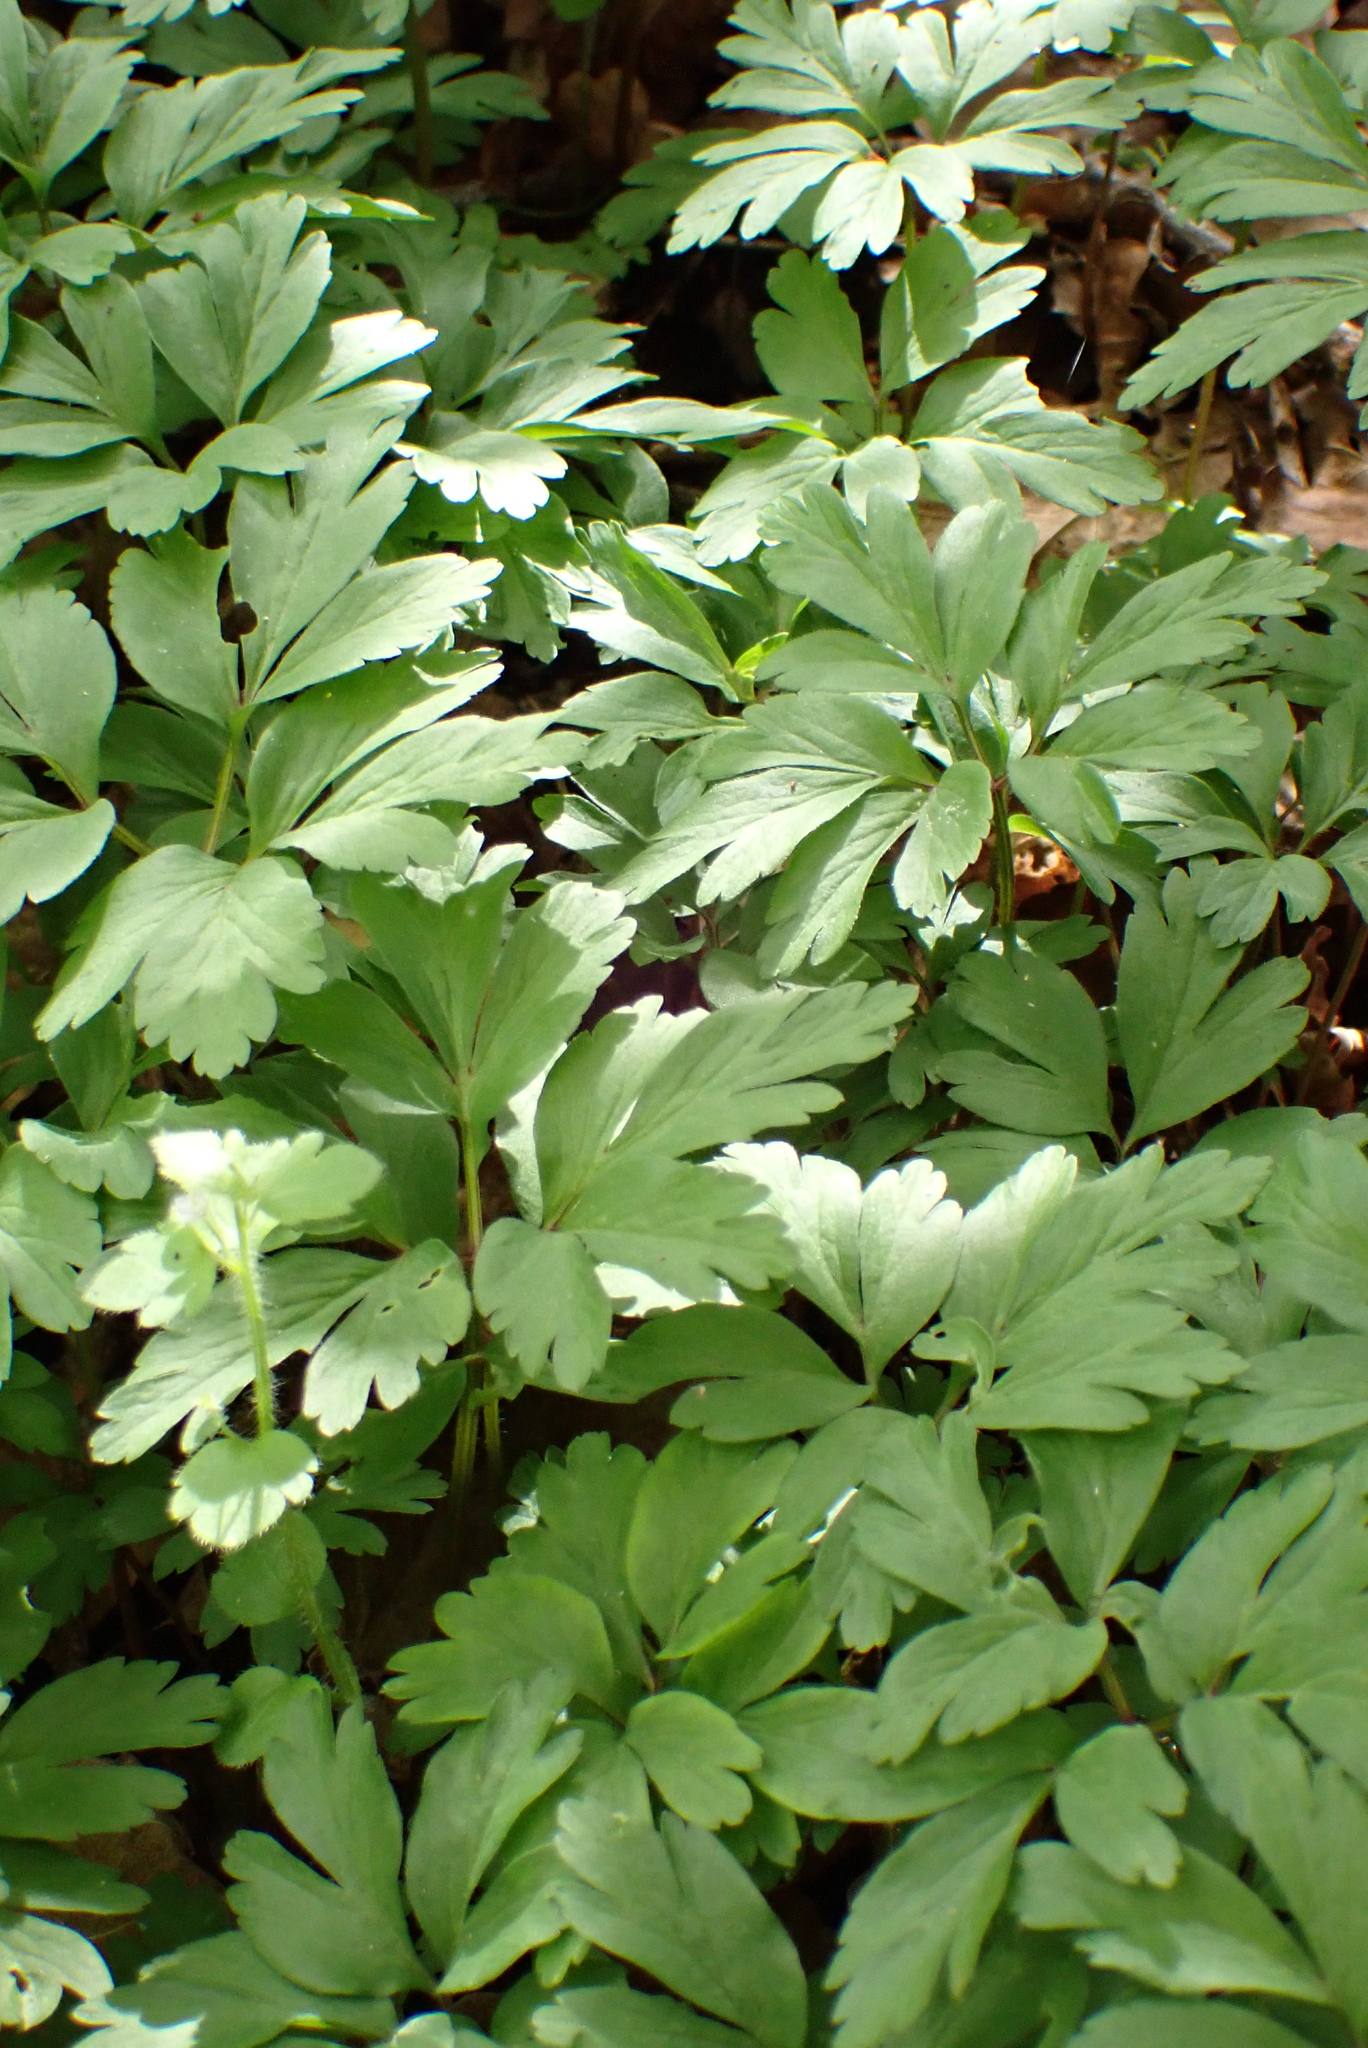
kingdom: Plantae
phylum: Tracheophyta
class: Magnoliopsida
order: Ranunculales
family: Ranunculaceae
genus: Anemone
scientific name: Anemone nemorosa
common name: Wood anemone
